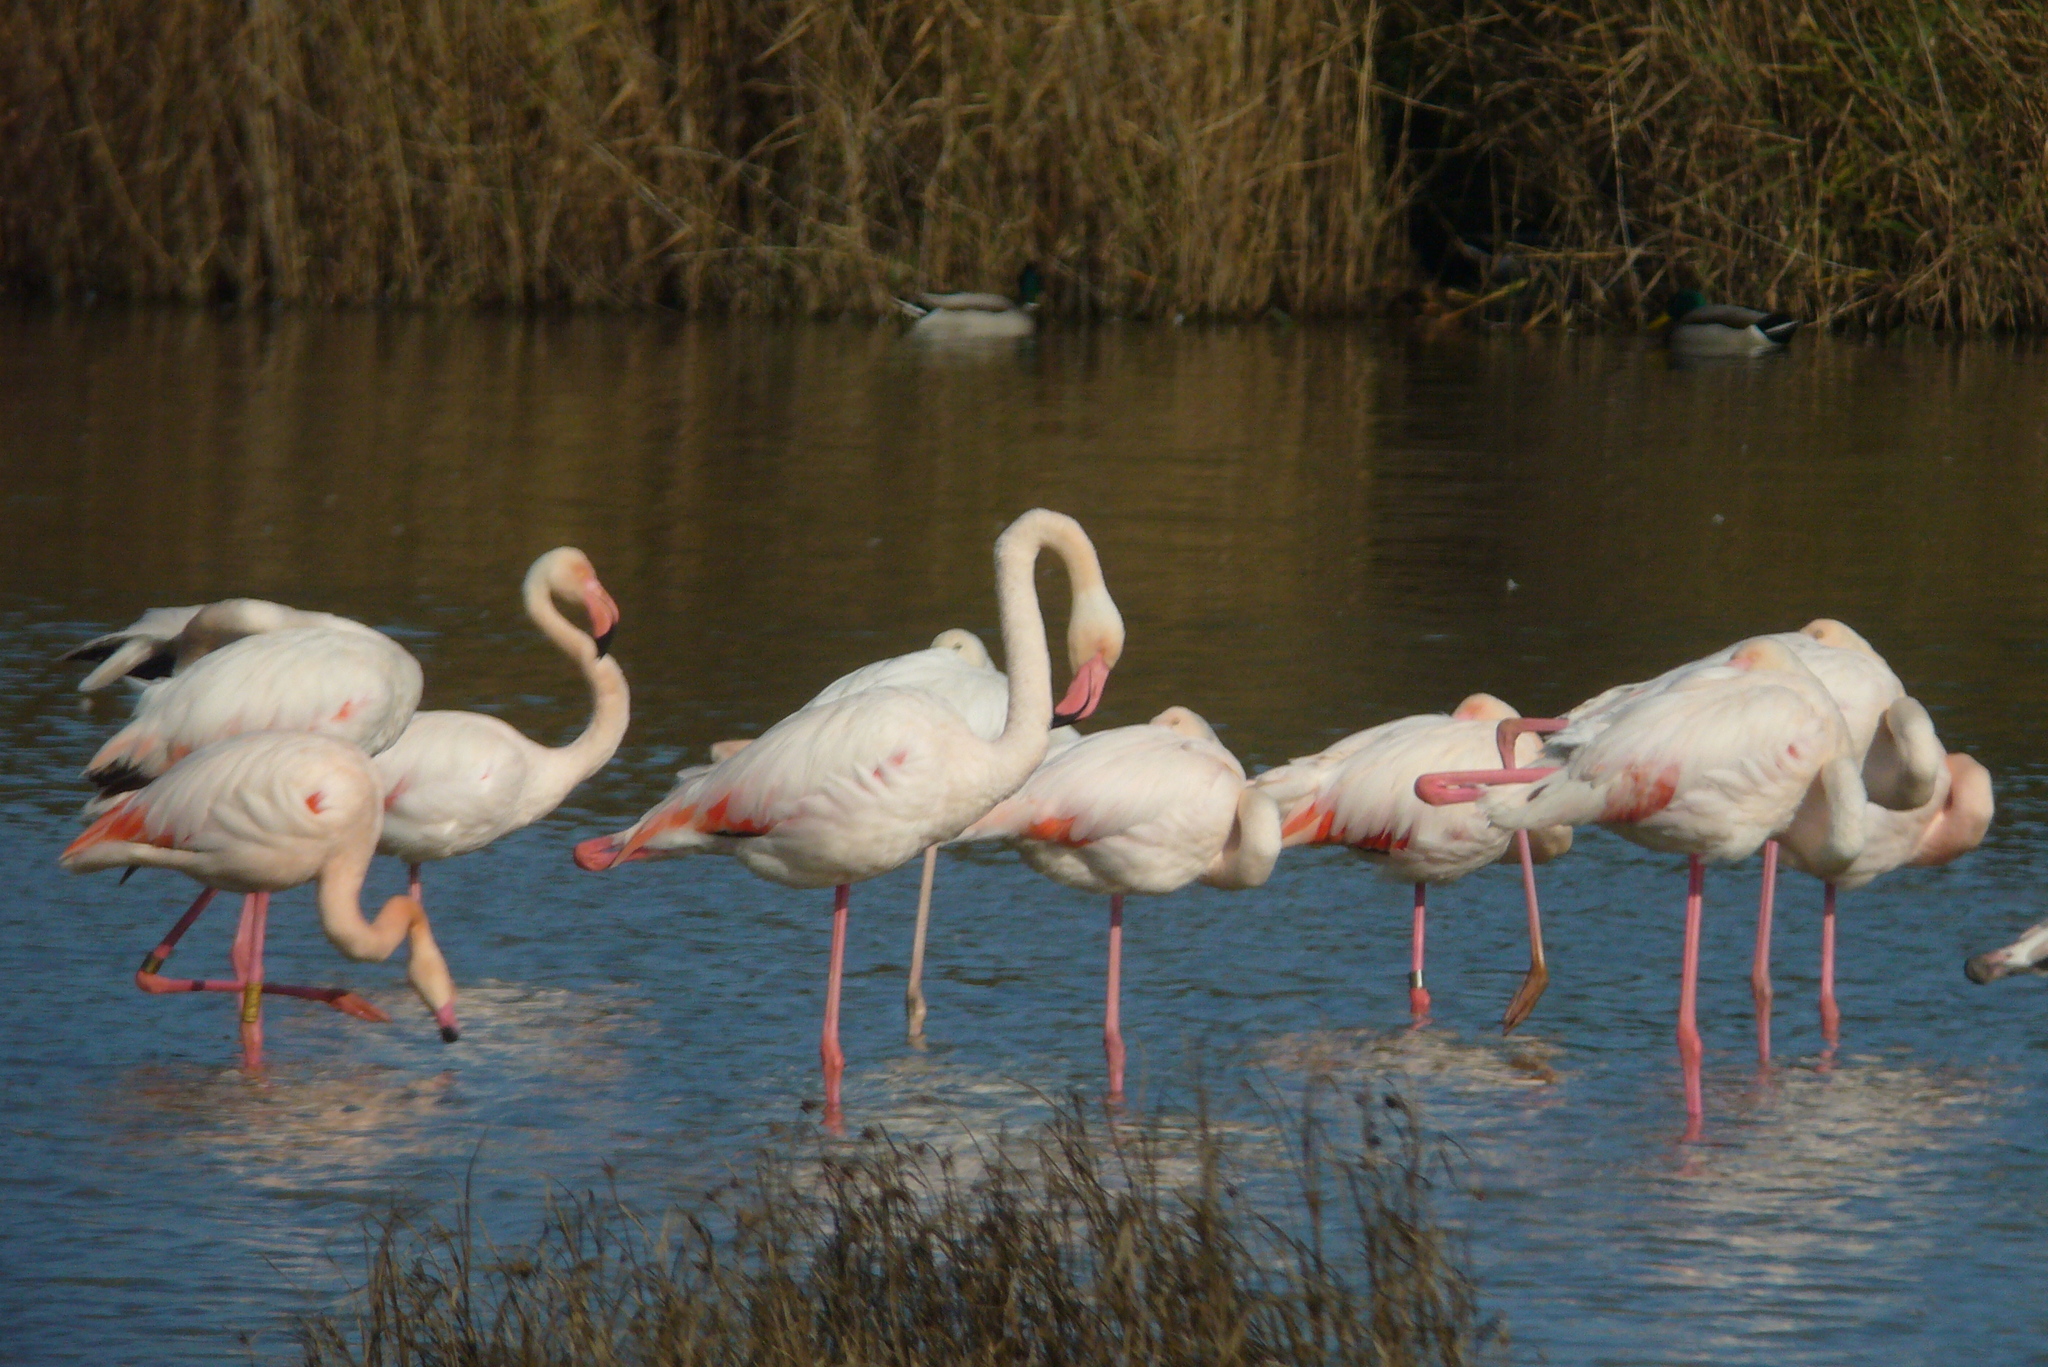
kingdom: Animalia
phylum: Chordata
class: Aves
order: Phoenicopteriformes
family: Phoenicopteridae
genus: Phoenicopterus
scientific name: Phoenicopterus roseus
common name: Greater flamingo
